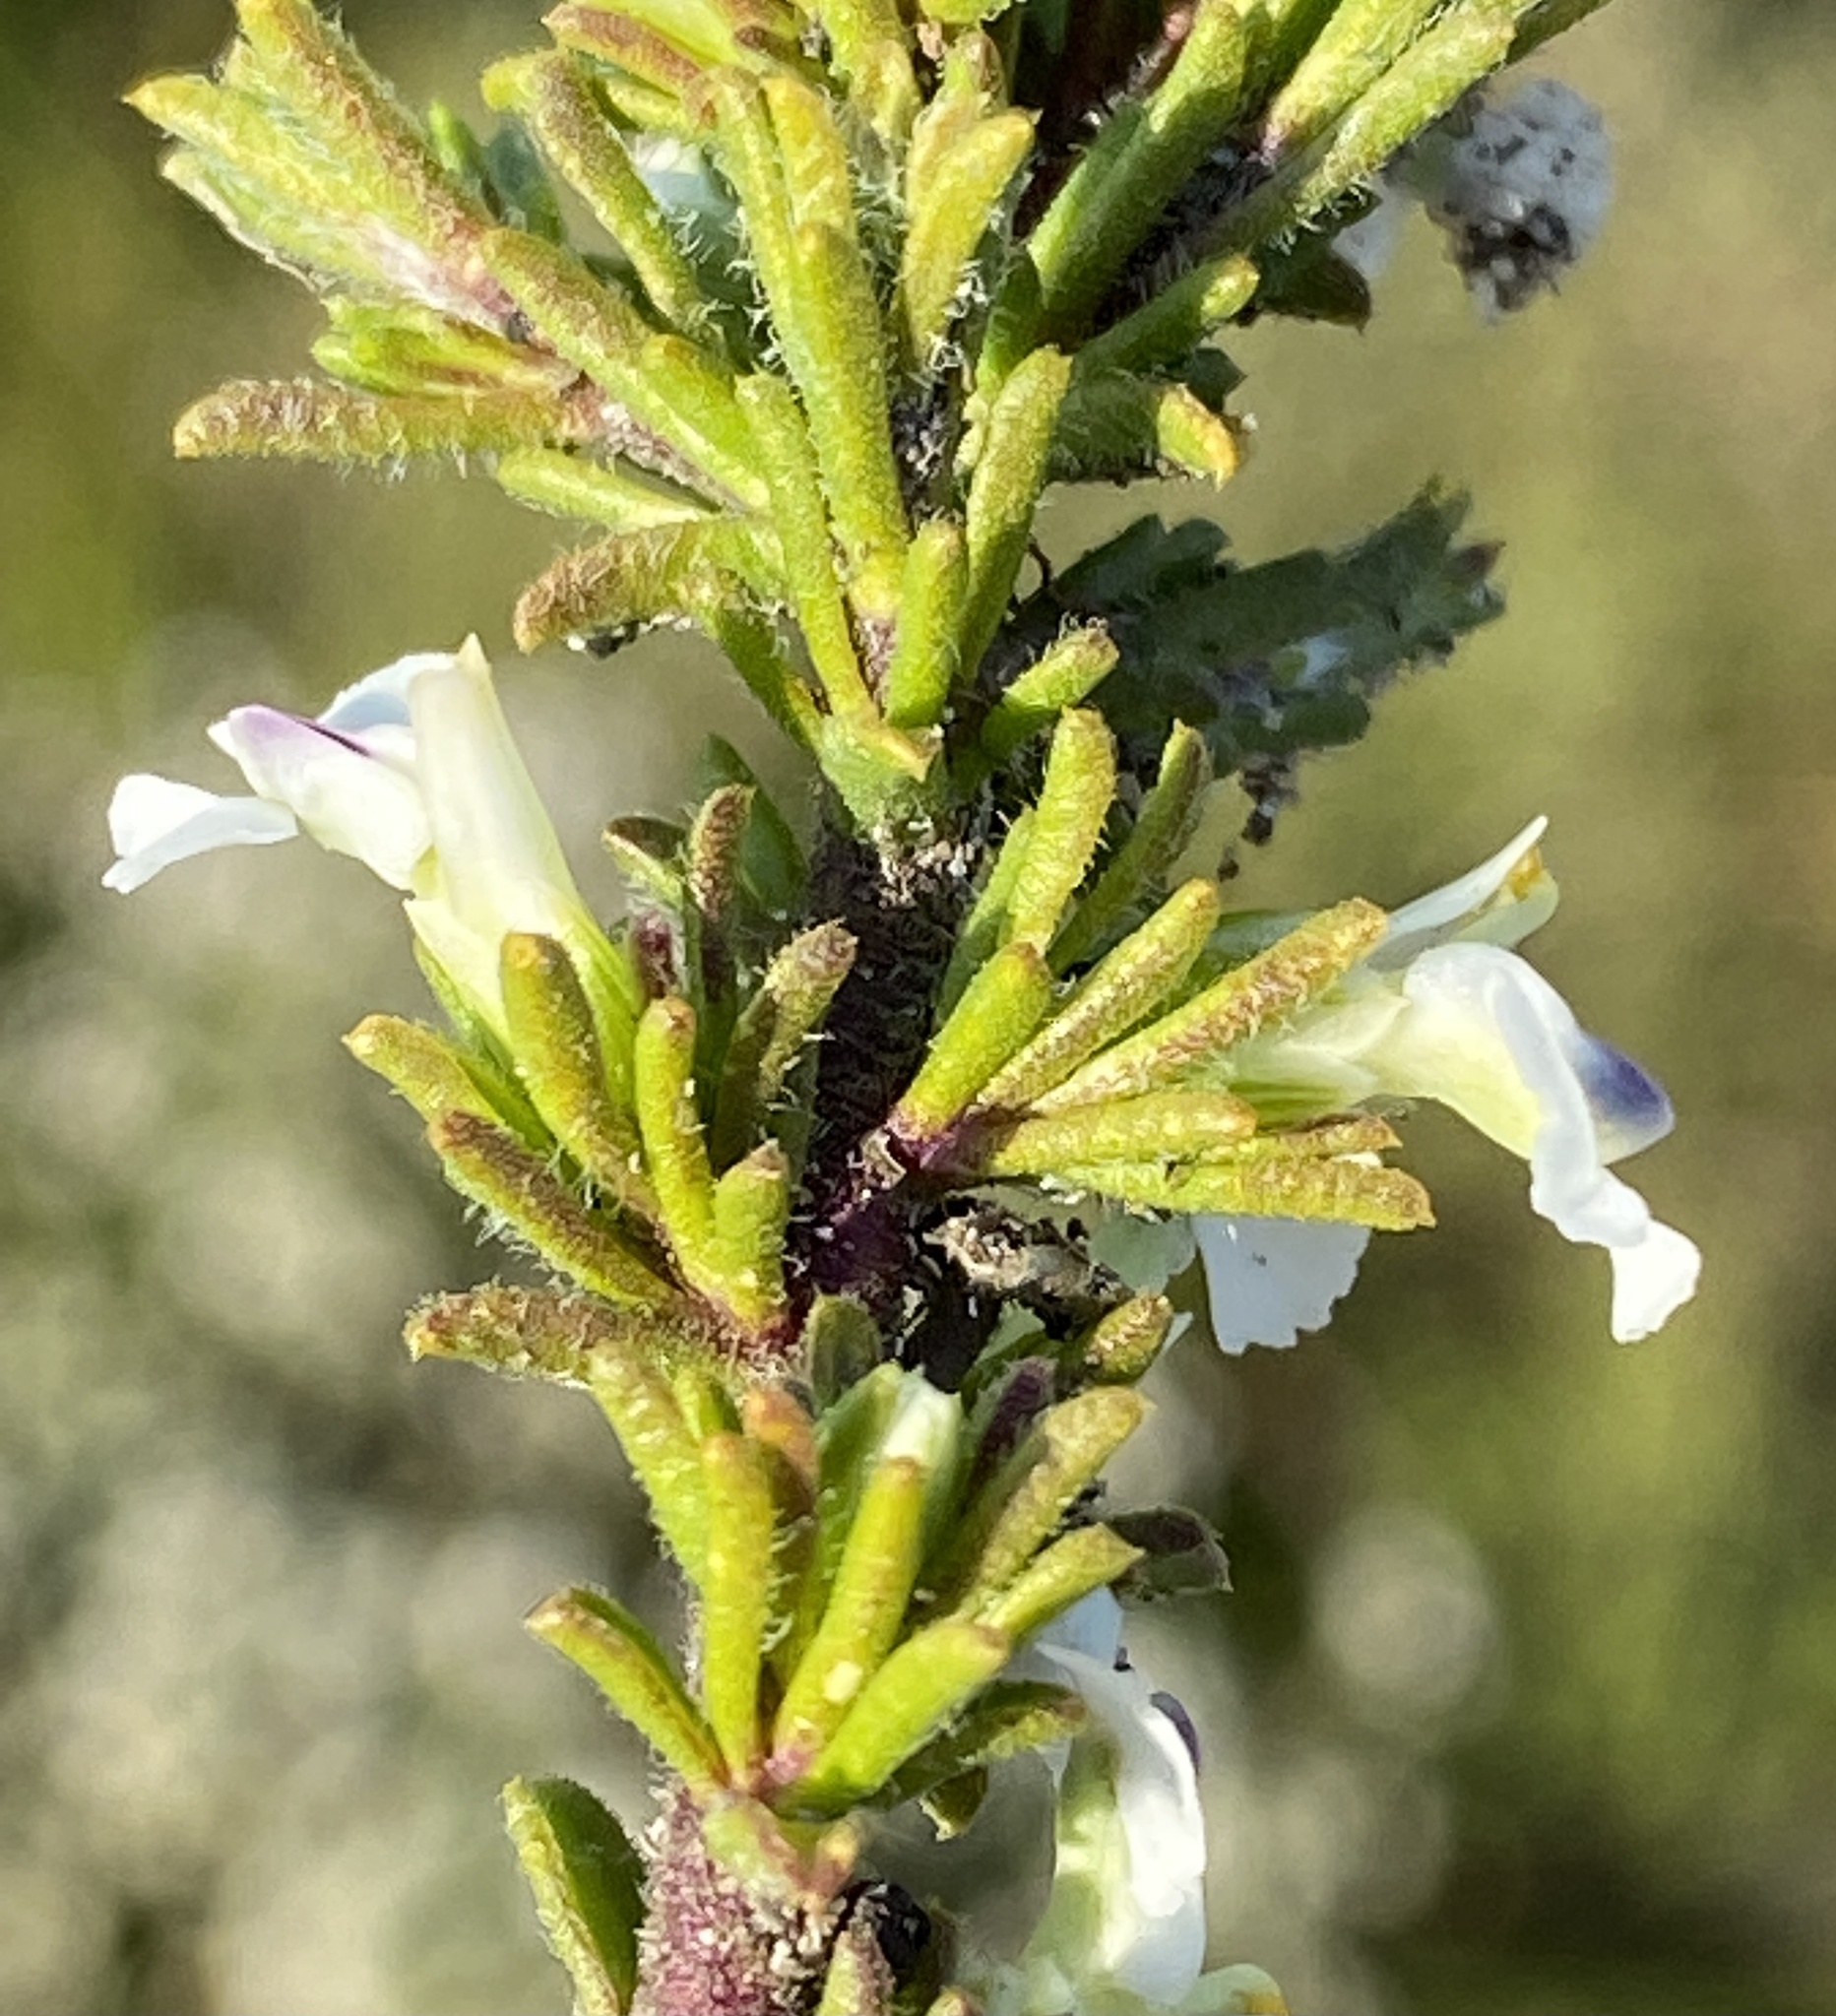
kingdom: Plantae
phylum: Tracheophyta
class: Magnoliopsida
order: Fabales
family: Polygalaceae
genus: Muraltia
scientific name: Muraltia pappeana
